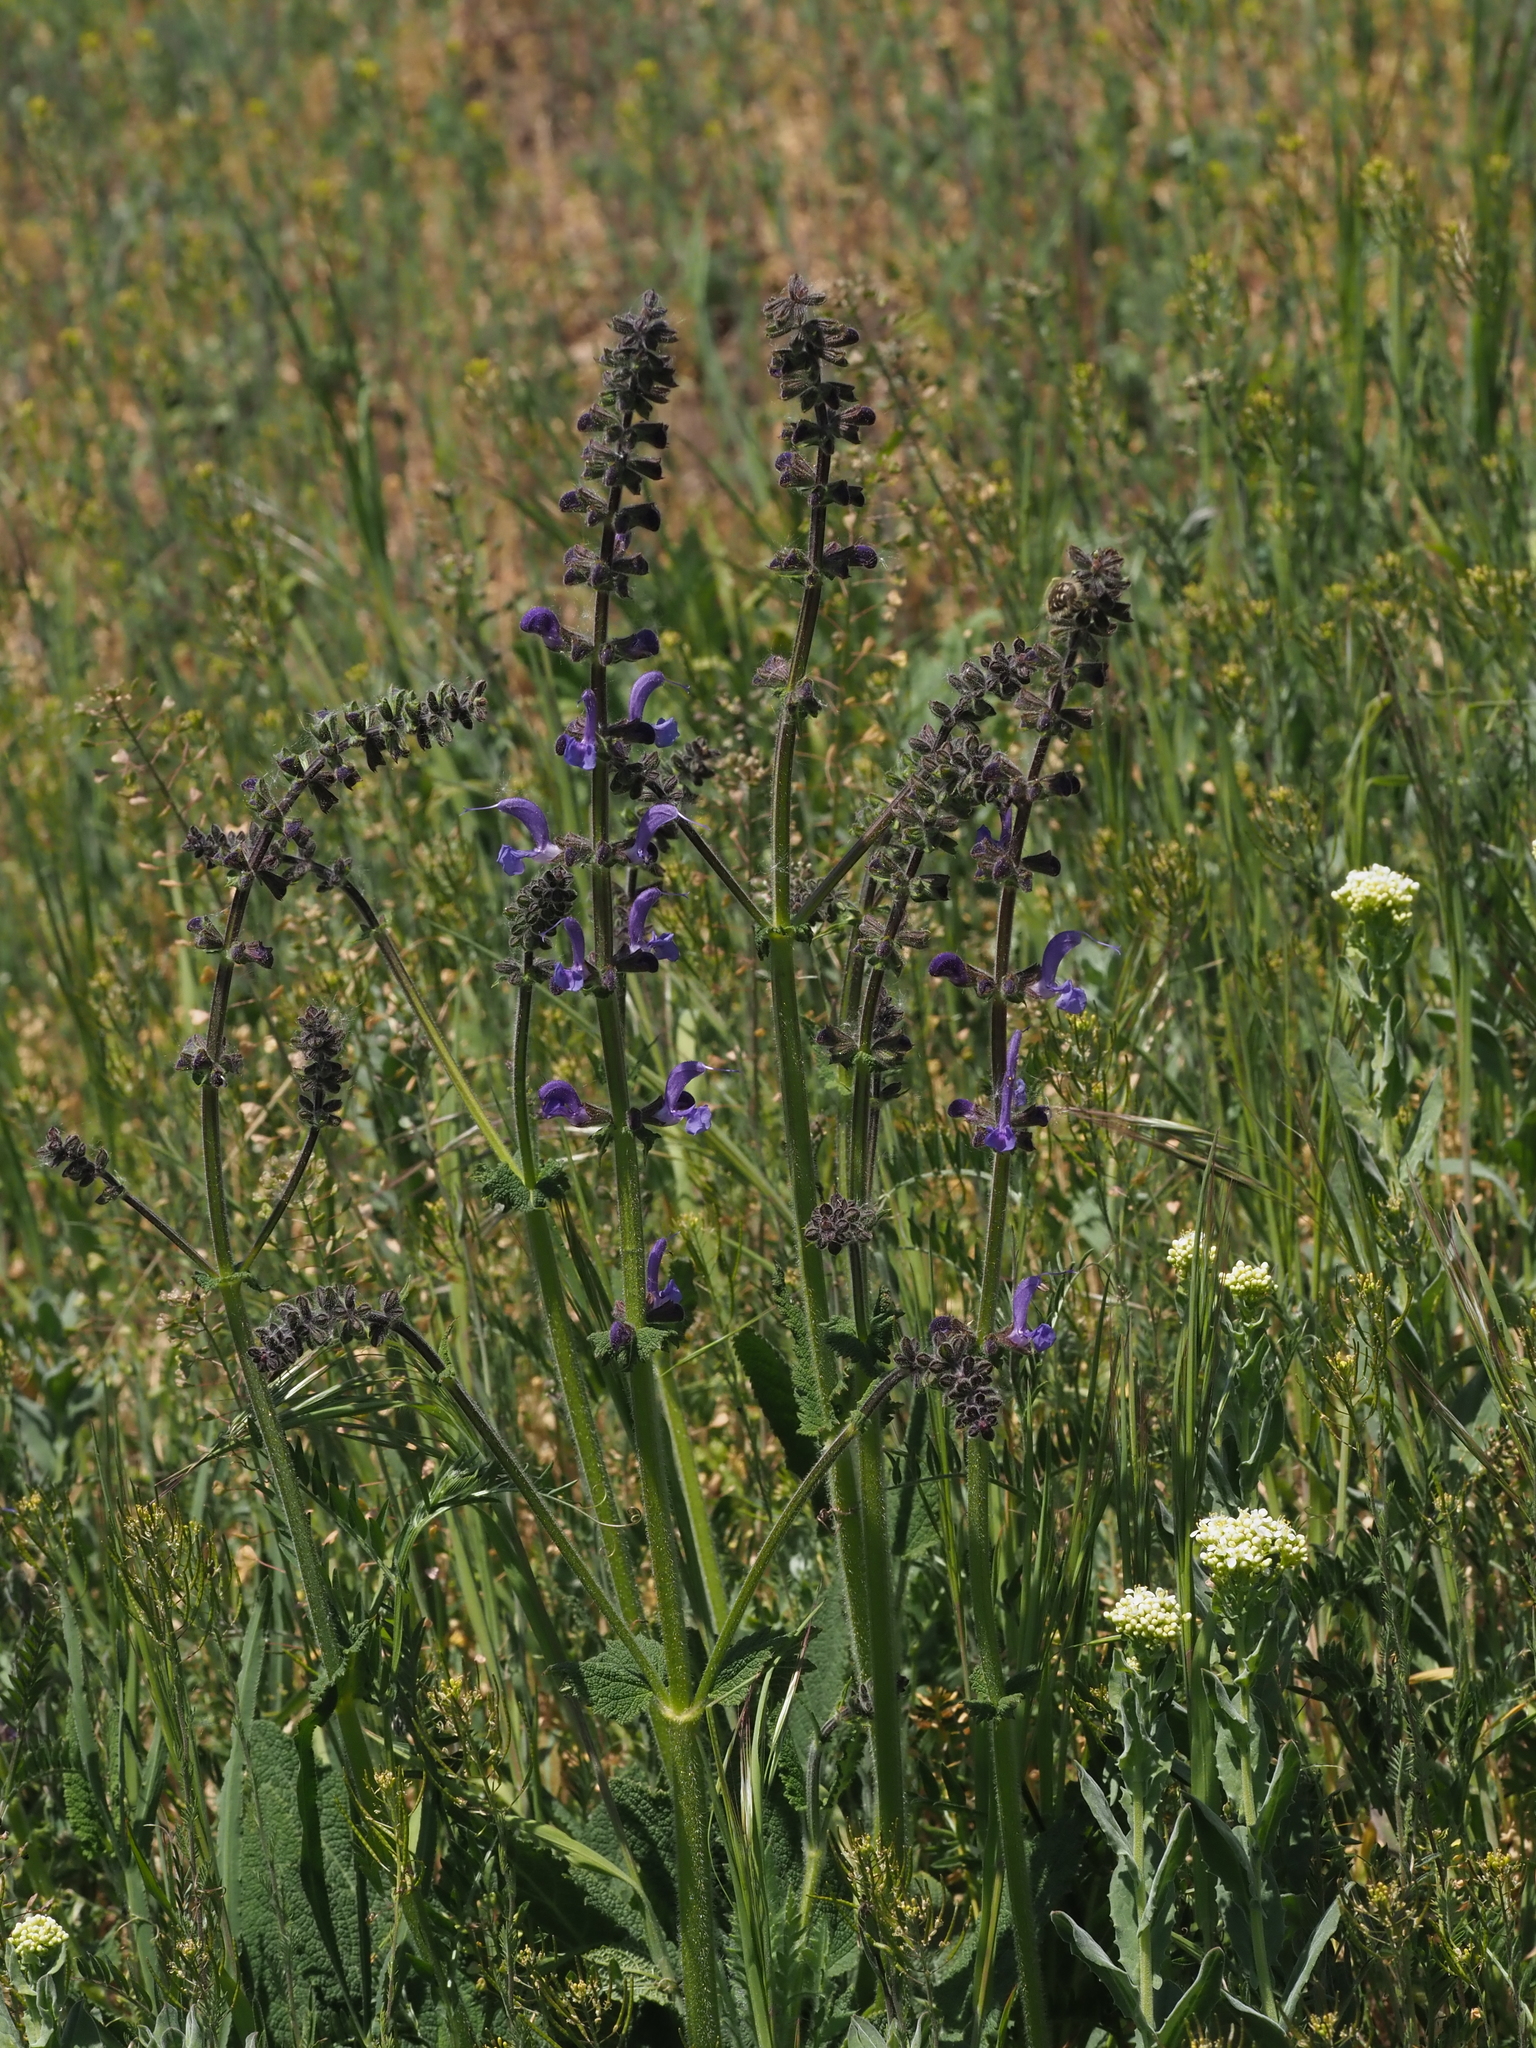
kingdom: Plantae
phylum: Tracheophyta
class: Magnoliopsida
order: Lamiales
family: Lamiaceae
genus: Salvia
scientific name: Salvia pratensis
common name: Meadow sage
